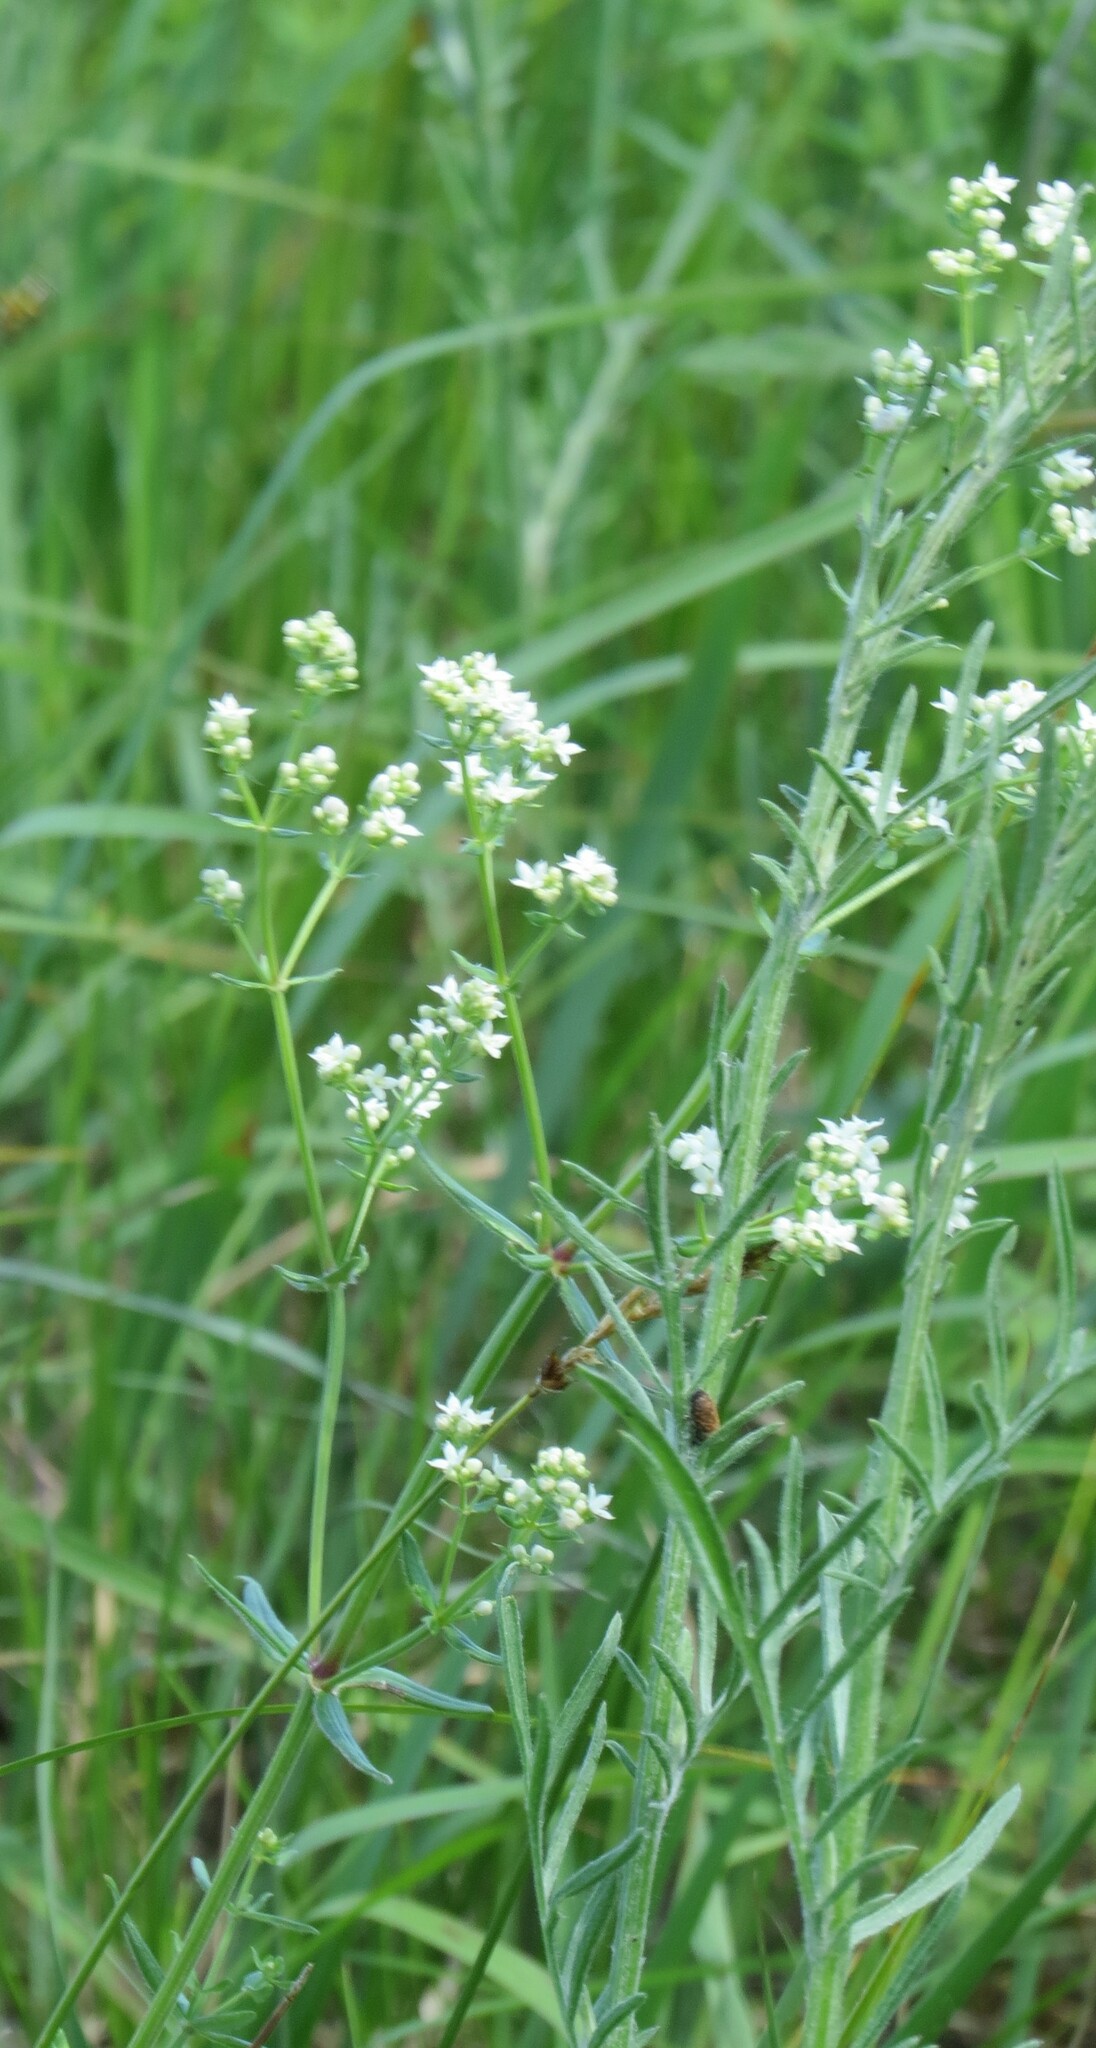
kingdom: Plantae
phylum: Tracheophyta
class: Magnoliopsida
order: Gentianales
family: Rubiaceae
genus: Galium
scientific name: Galium boreale
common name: Northern bedstraw
